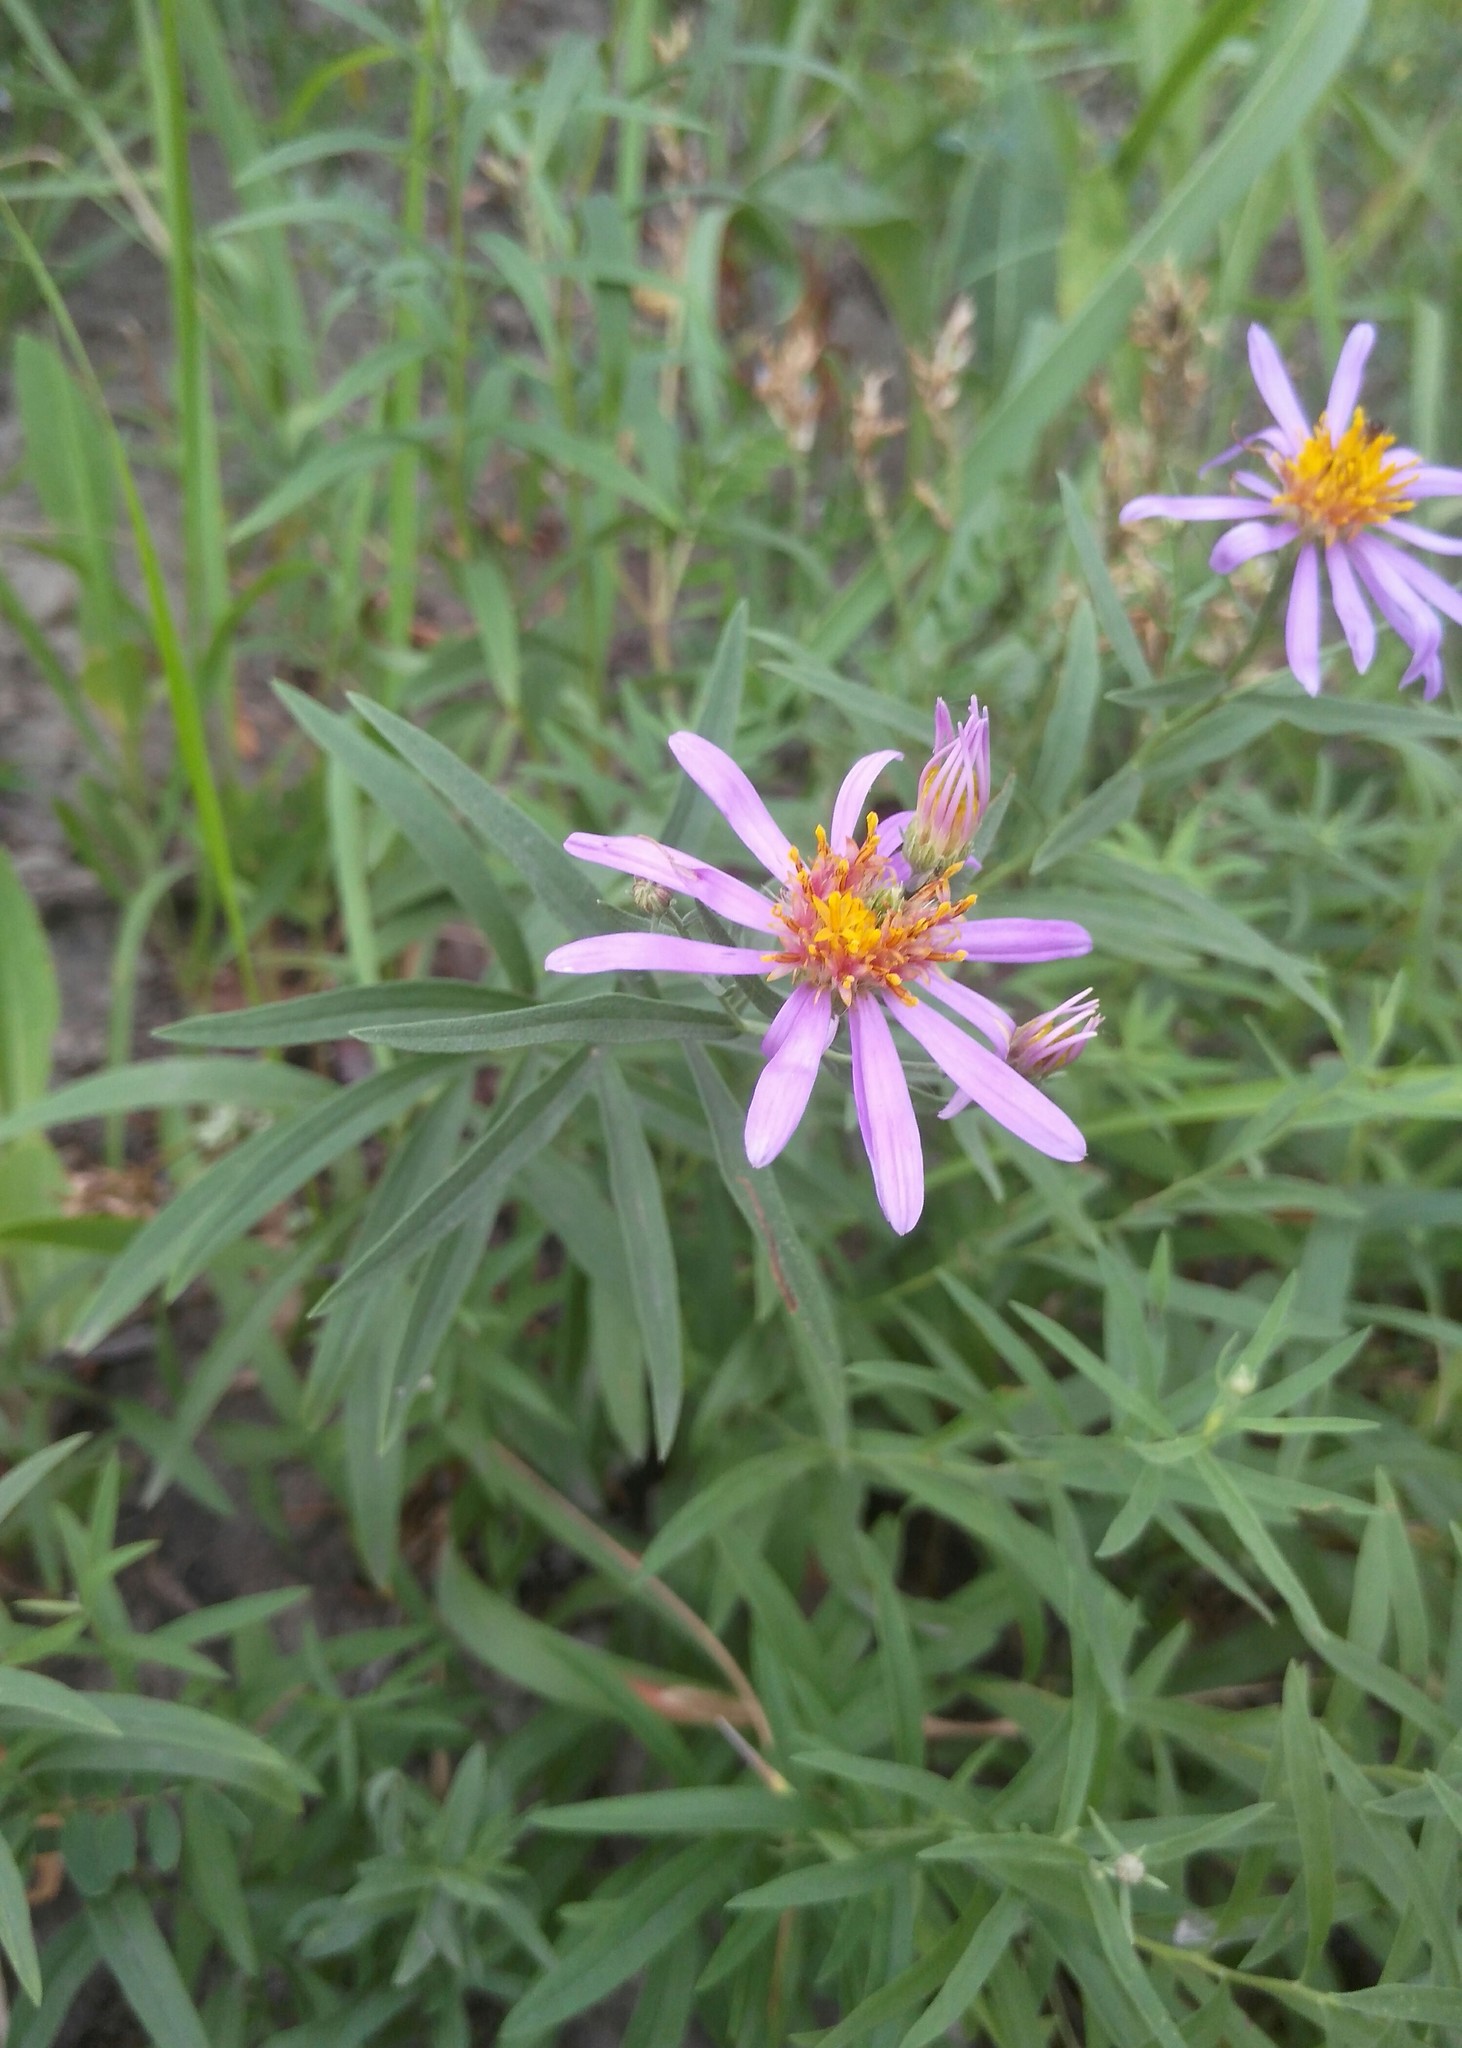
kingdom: Plantae
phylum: Tracheophyta
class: Magnoliopsida
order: Asterales
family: Asteraceae
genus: Galatella
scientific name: Galatella dahurica
